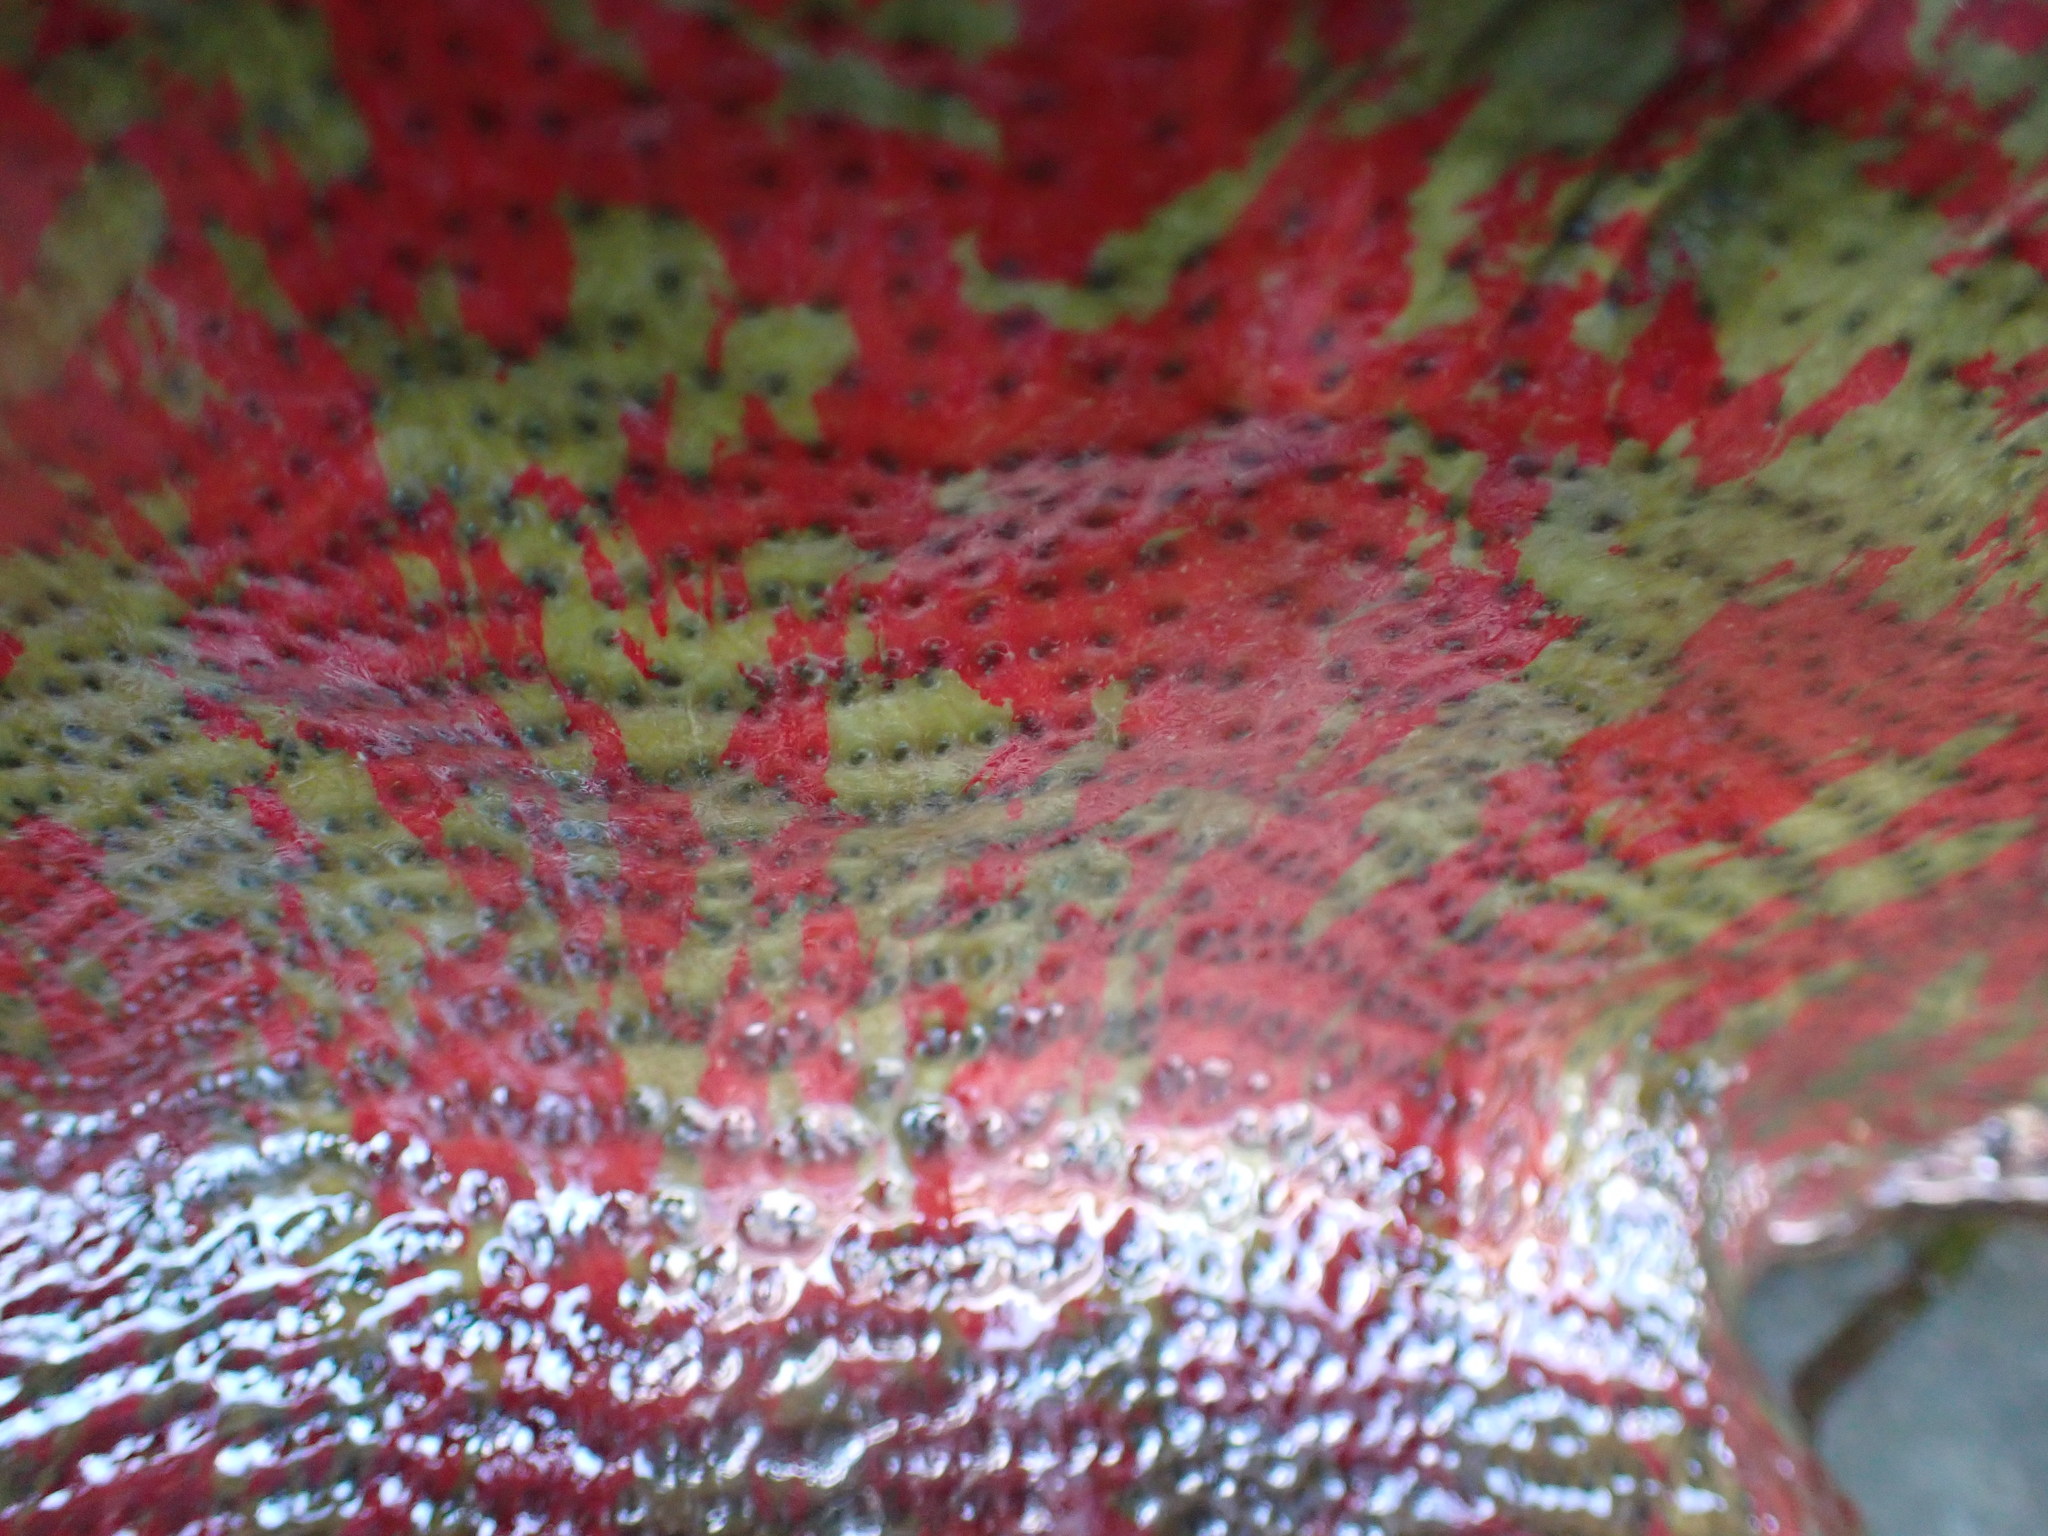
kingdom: Animalia
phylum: Cnidaria
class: Anthozoa
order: Actiniaria
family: Actiniidae
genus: Urticina
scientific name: Urticina grebelnyi
